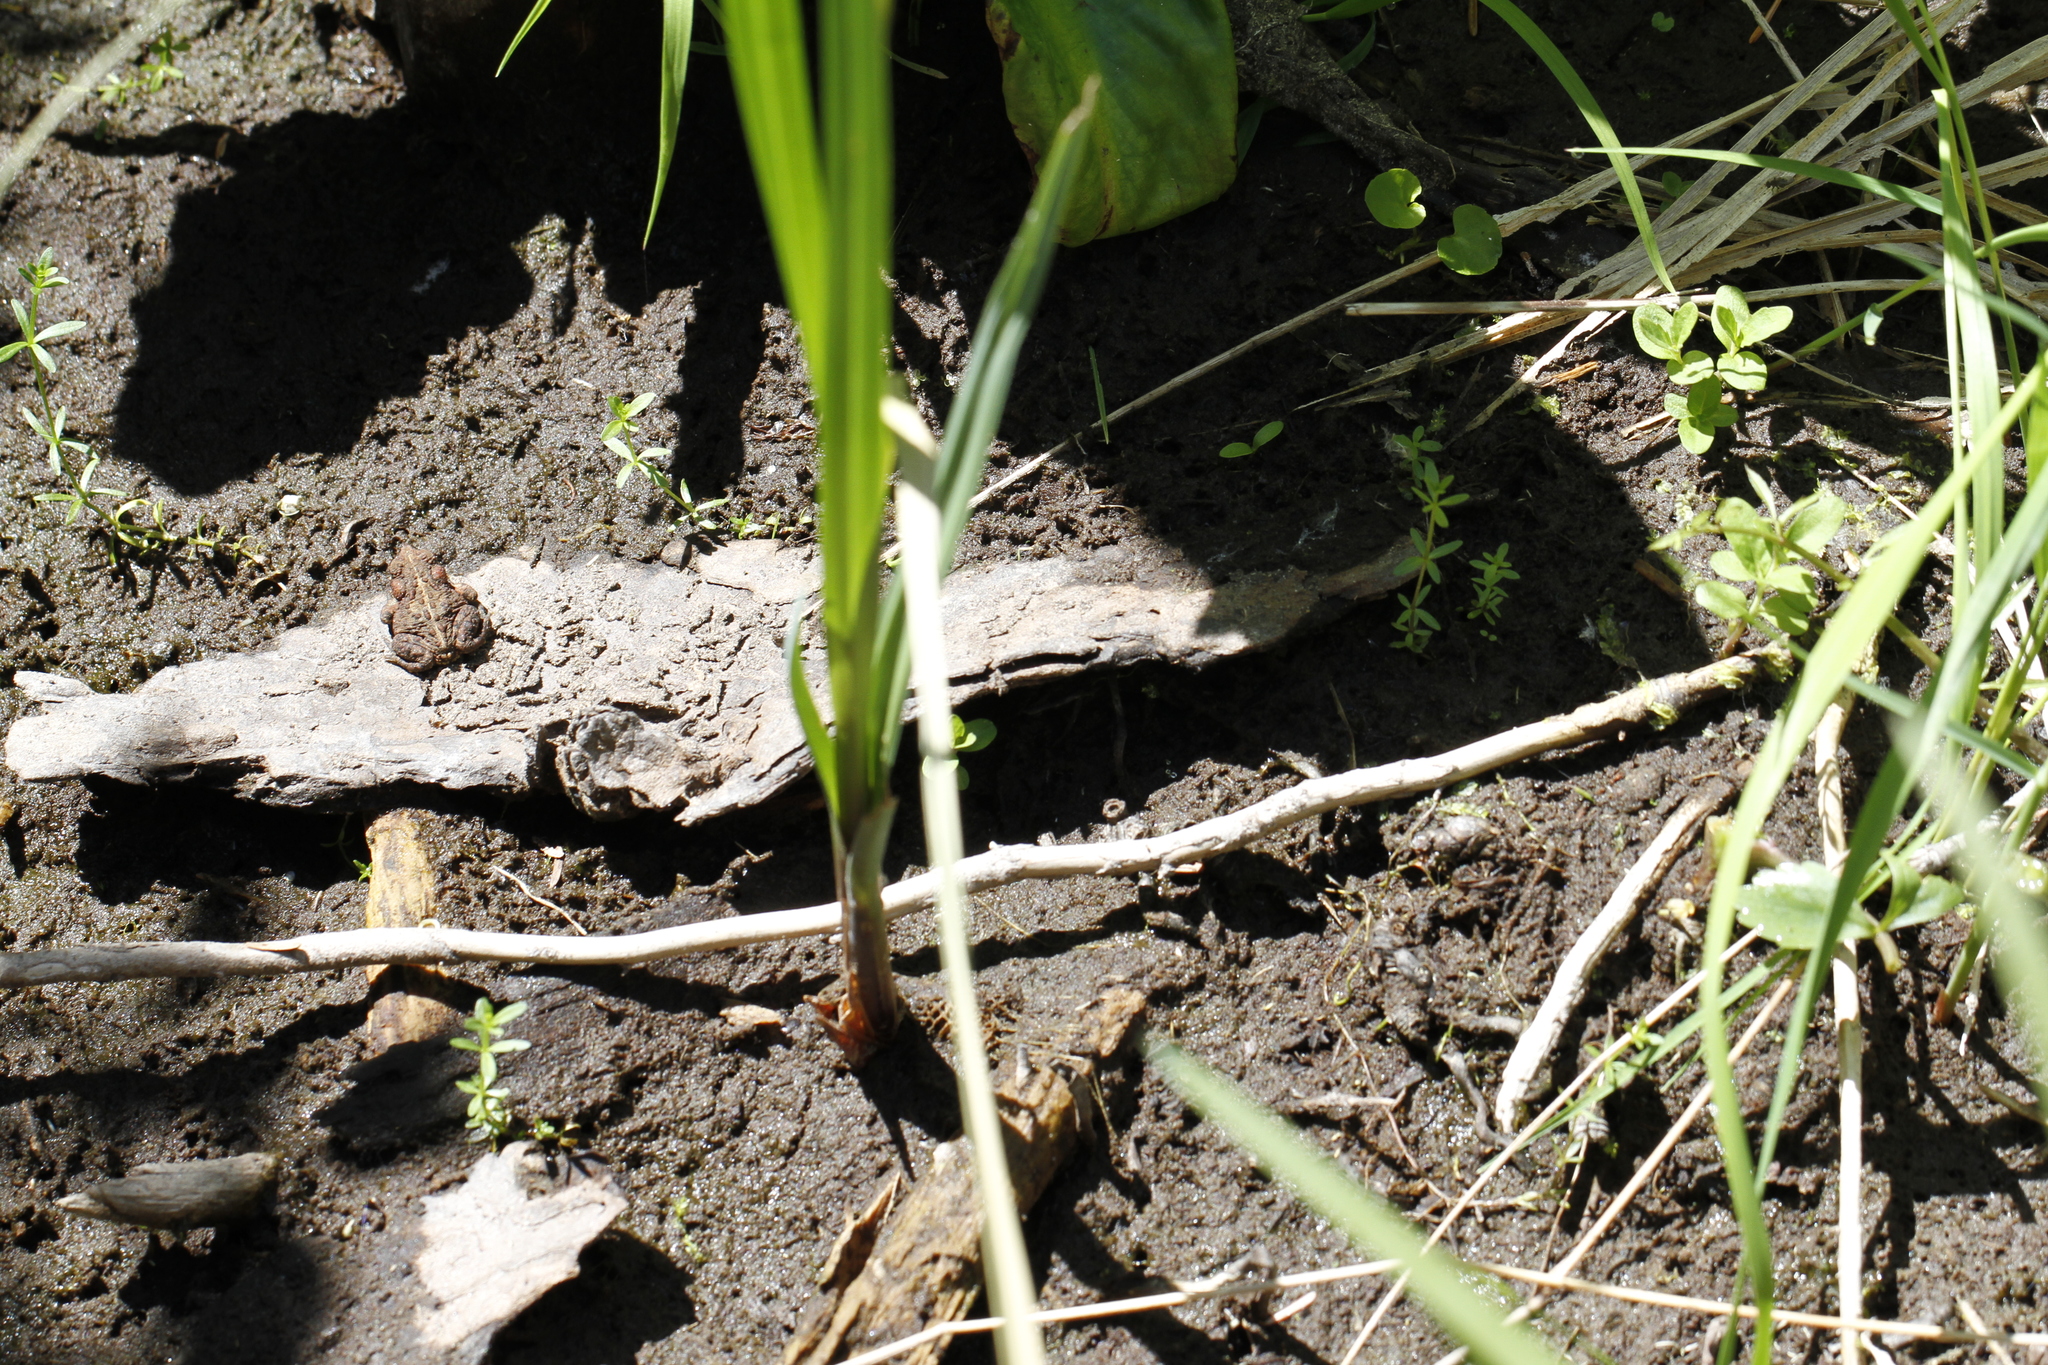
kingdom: Animalia
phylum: Chordata
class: Amphibia
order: Anura
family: Bufonidae
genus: Anaxyrus
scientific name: Anaxyrus boreas
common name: Western toad
